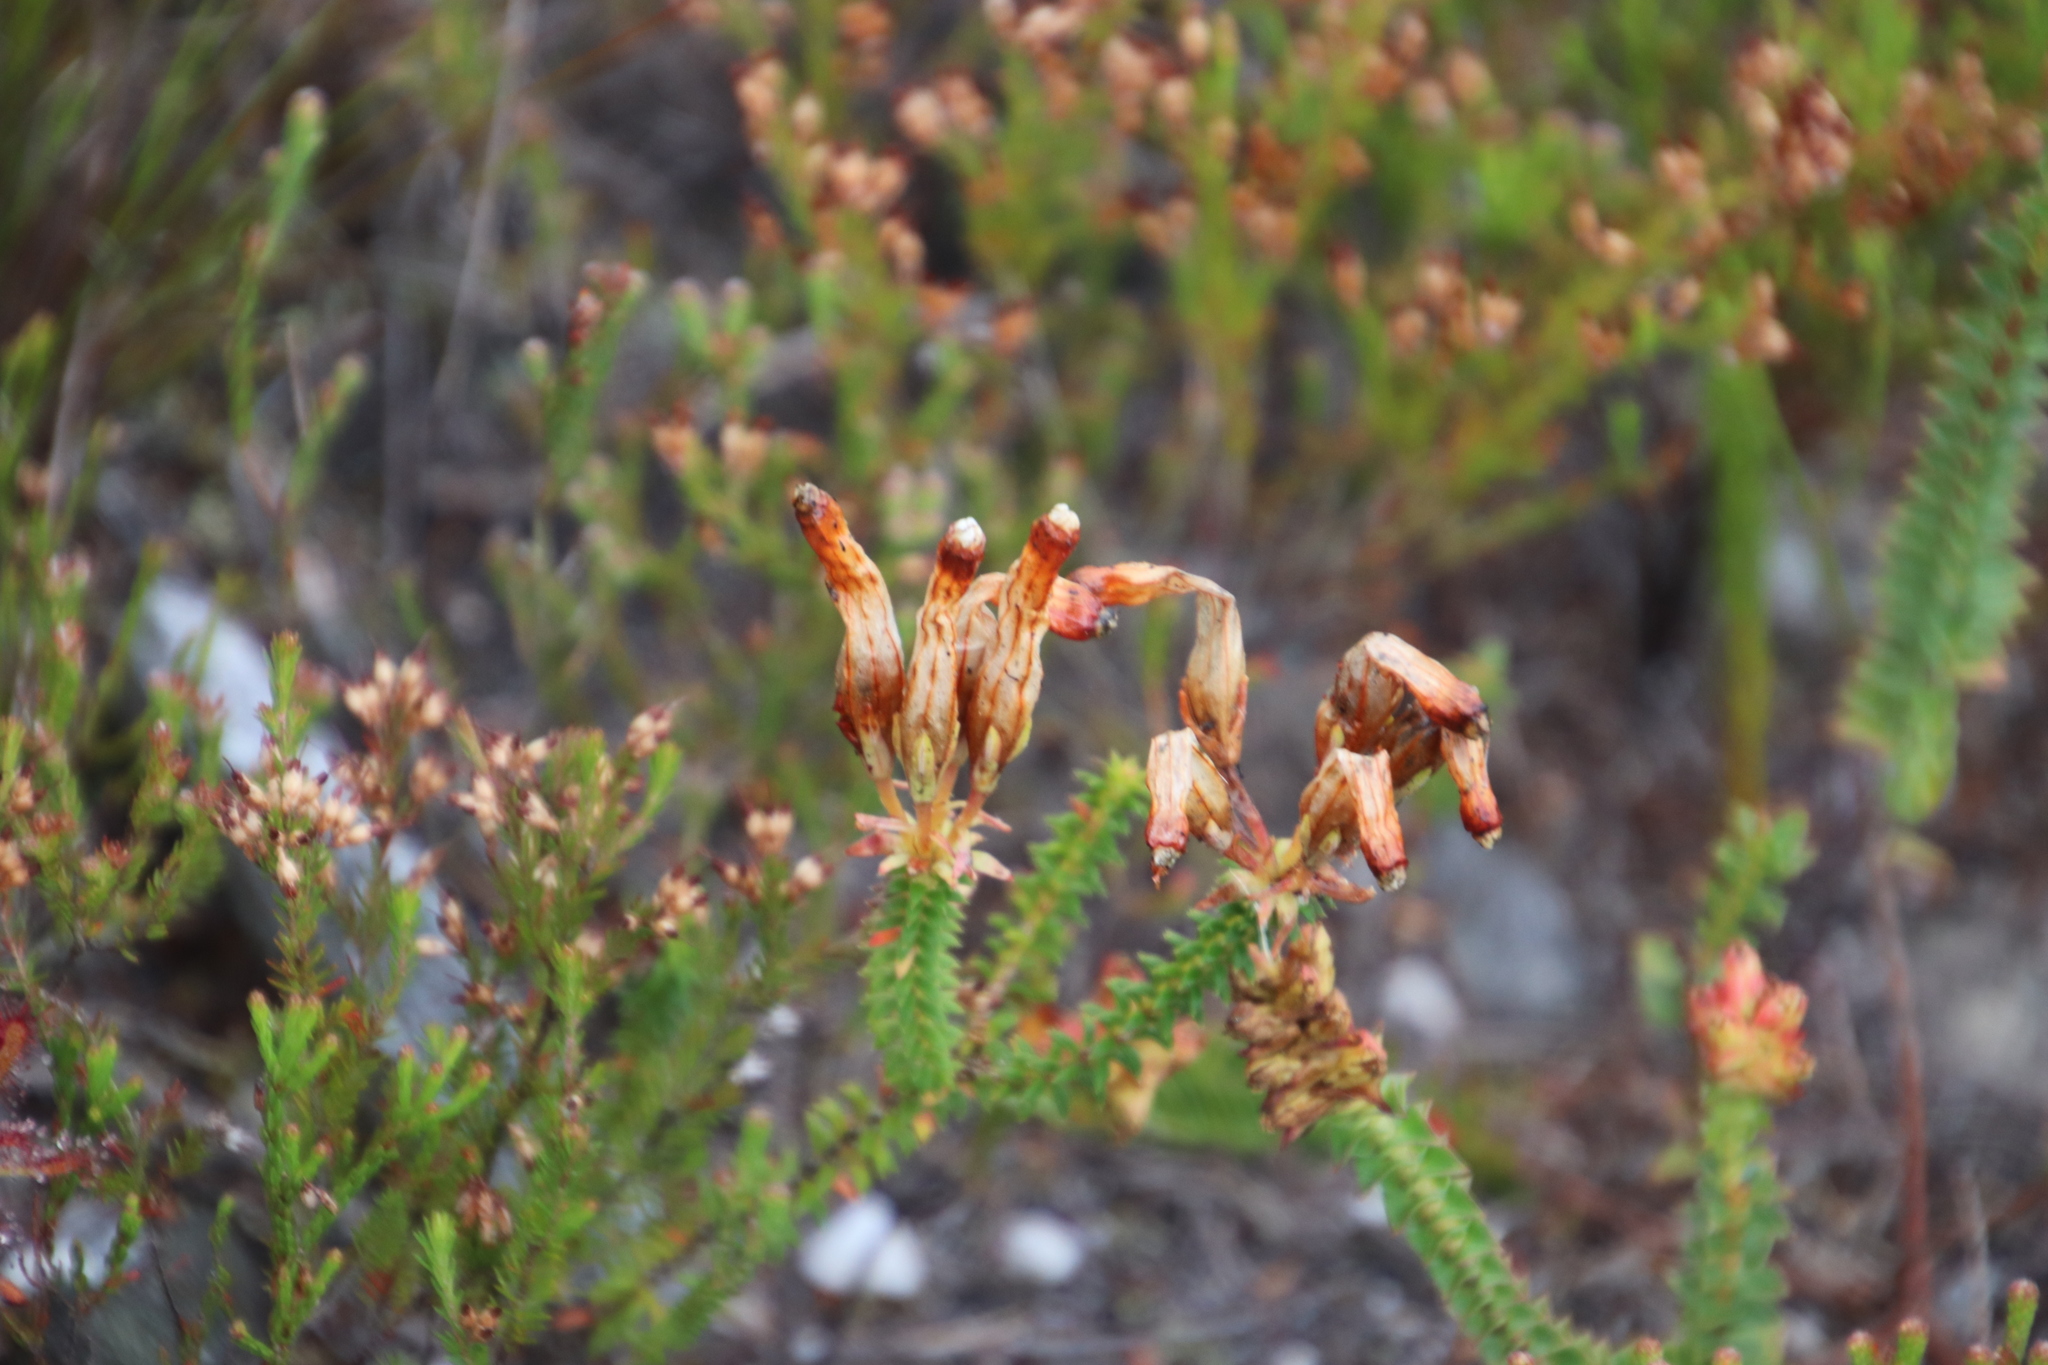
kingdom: Plantae
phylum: Tracheophyta
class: Magnoliopsida
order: Ericales
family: Ericaceae
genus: Erica
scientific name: Erica aristata
